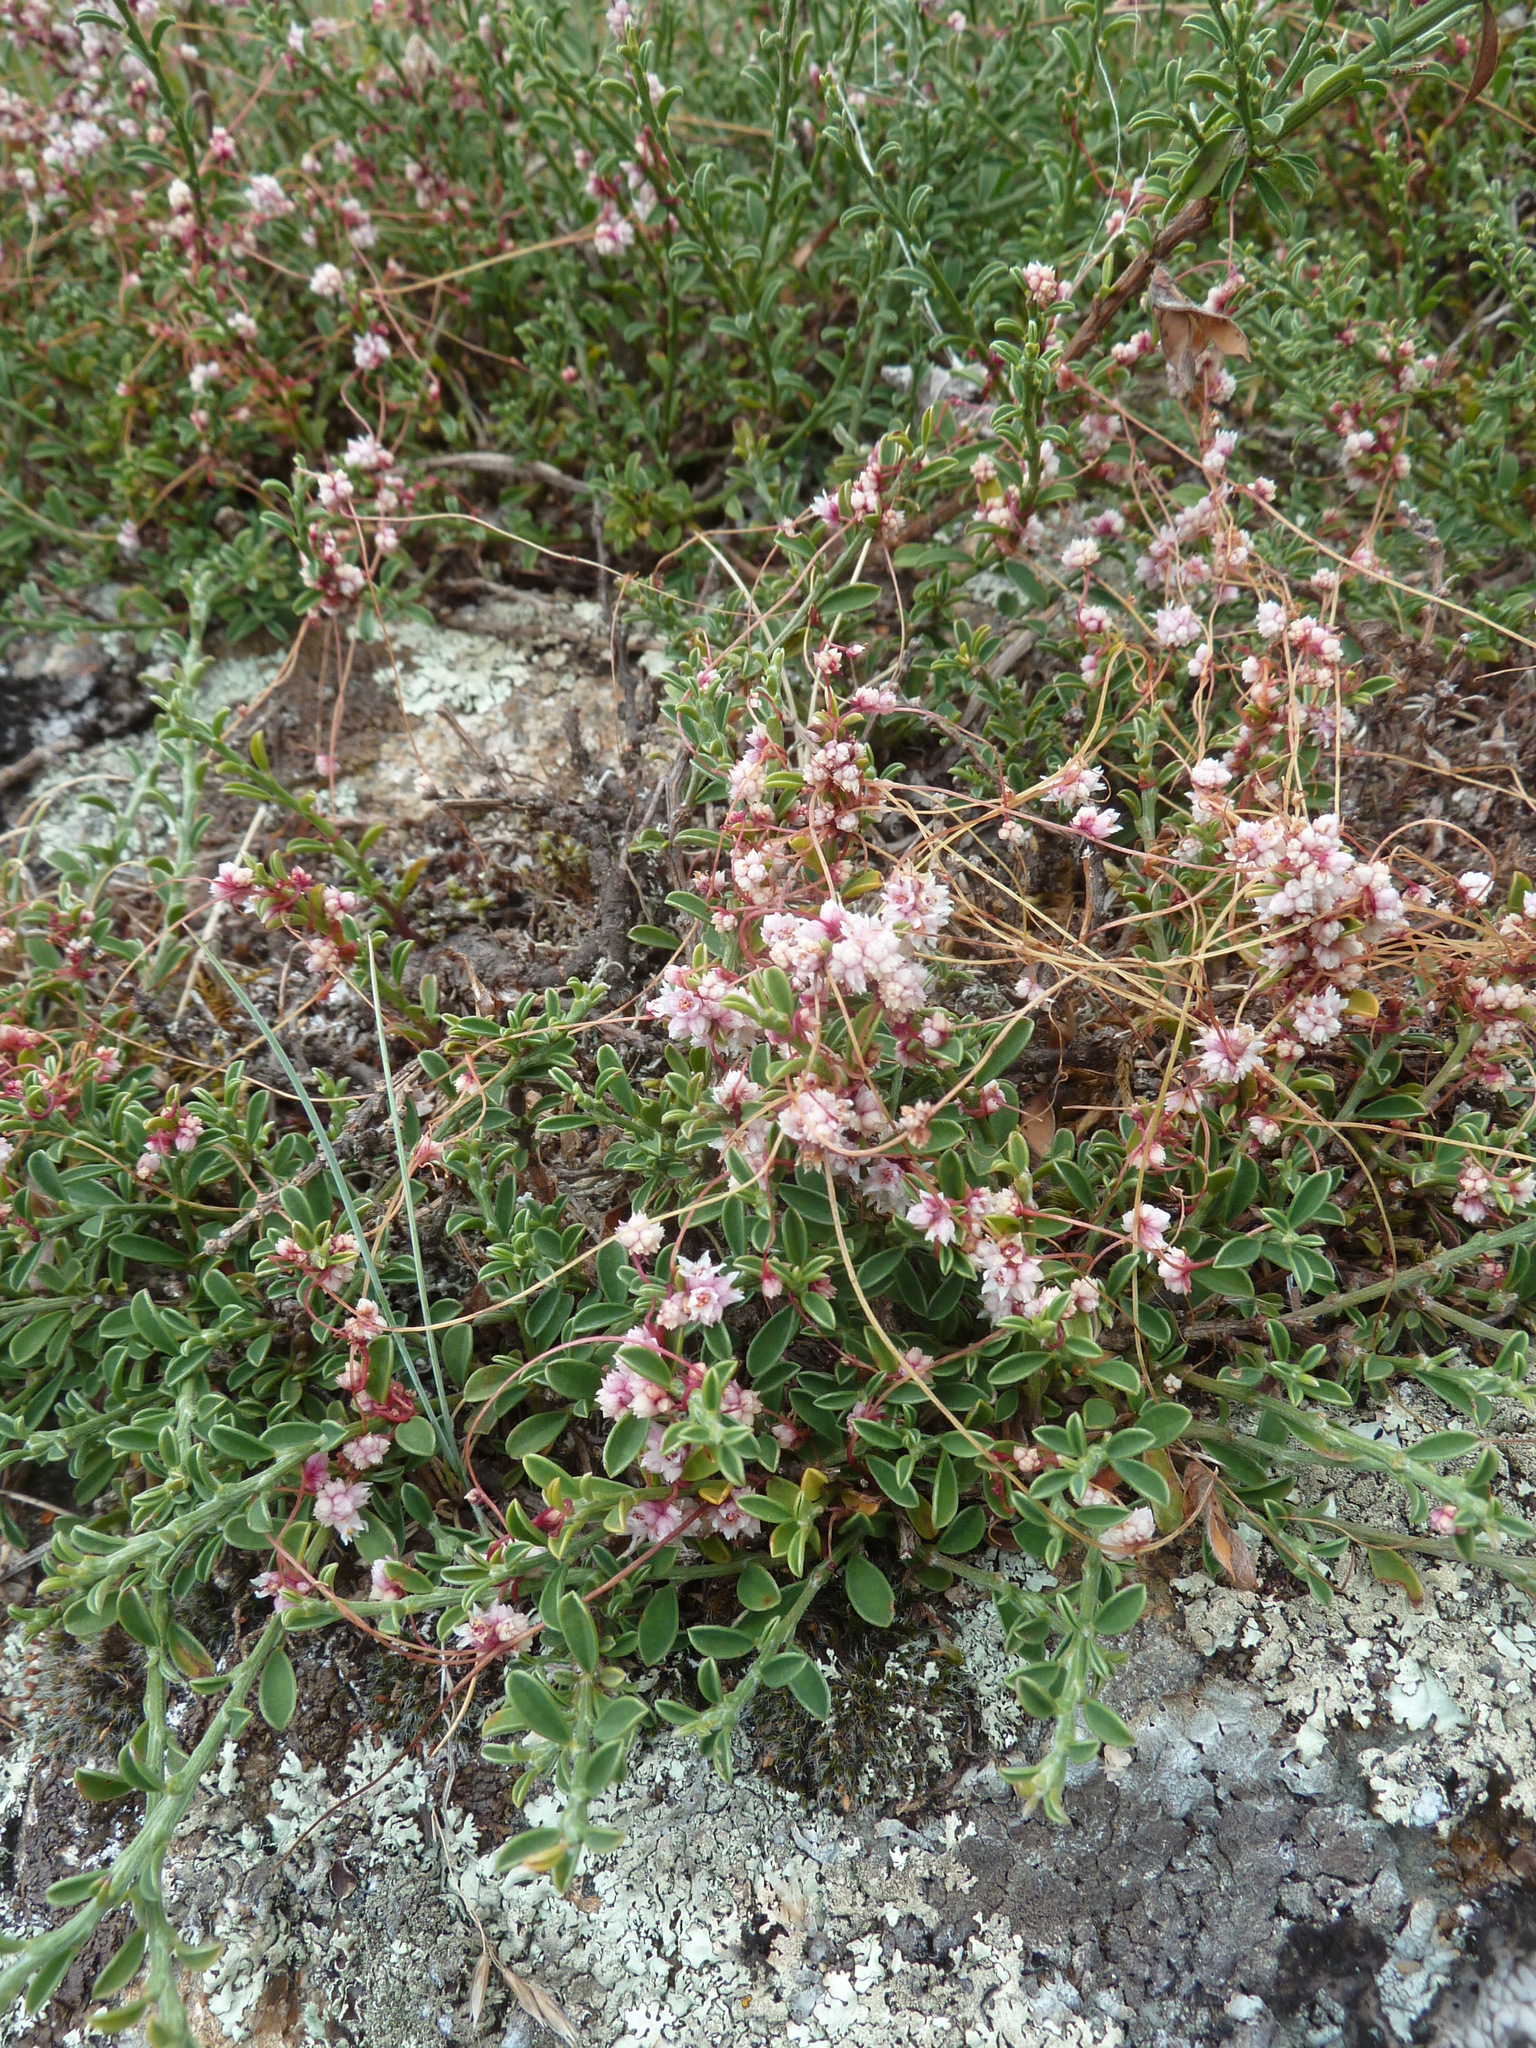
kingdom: Plantae
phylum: Tracheophyta
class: Magnoliopsida
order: Solanales
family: Convolvulaceae
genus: Cuscuta
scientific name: Cuscuta epithymum
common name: Clover dodder
